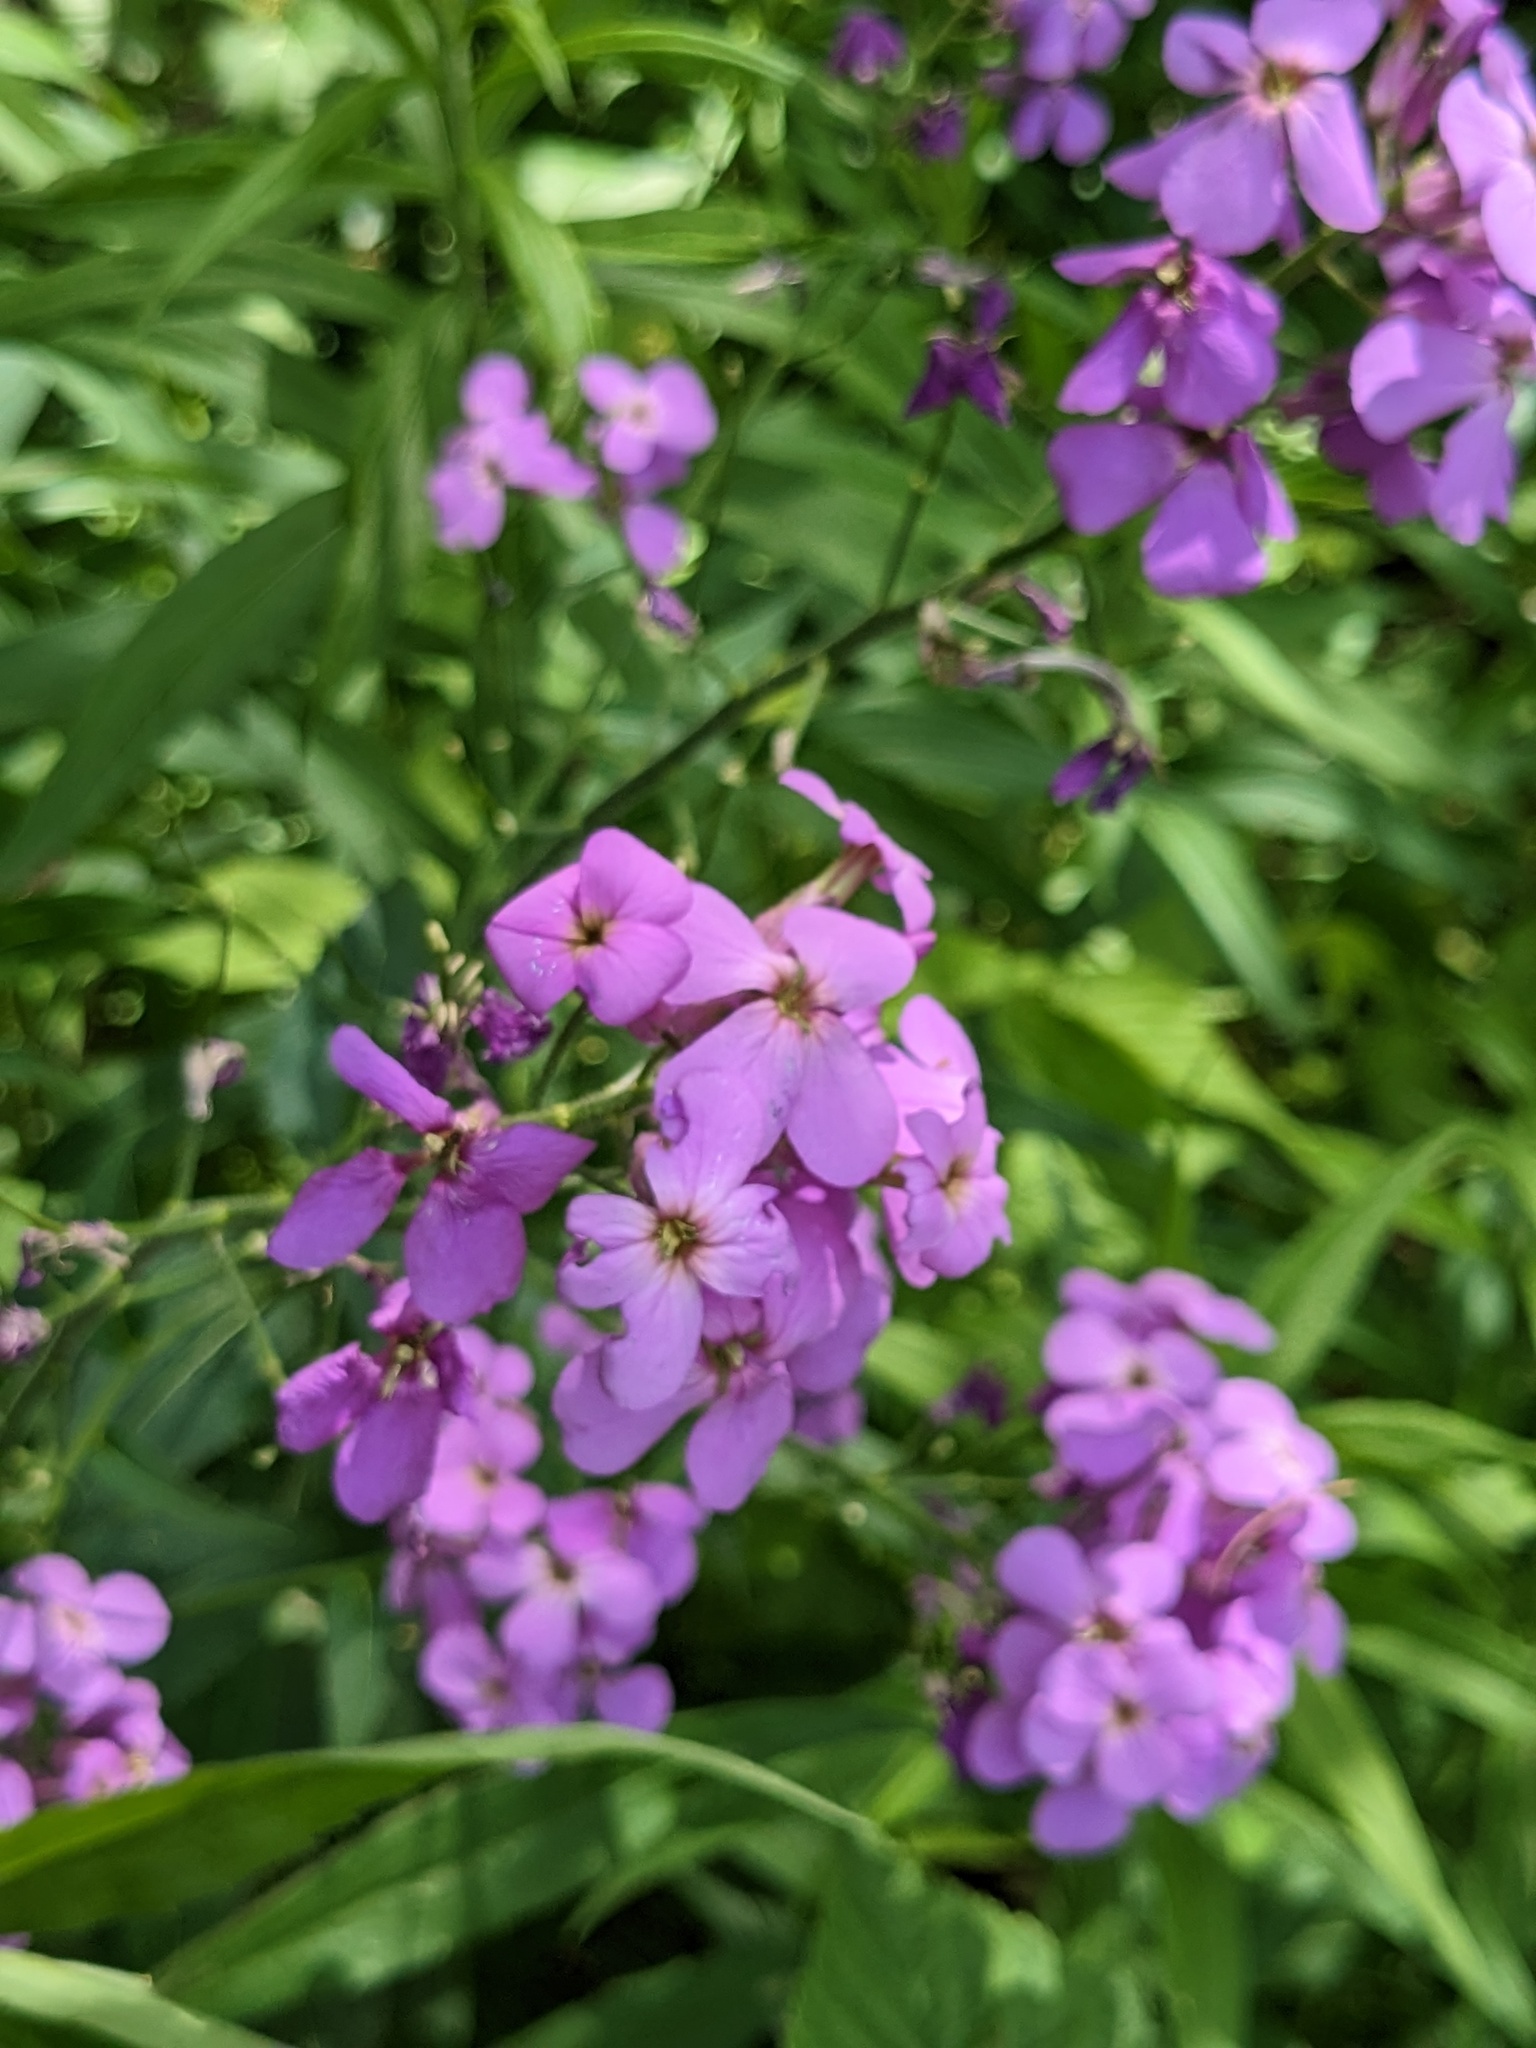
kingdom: Plantae
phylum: Tracheophyta
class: Magnoliopsida
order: Brassicales
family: Brassicaceae
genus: Hesperis
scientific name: Hesperis matronalis
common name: Dame's-violet
